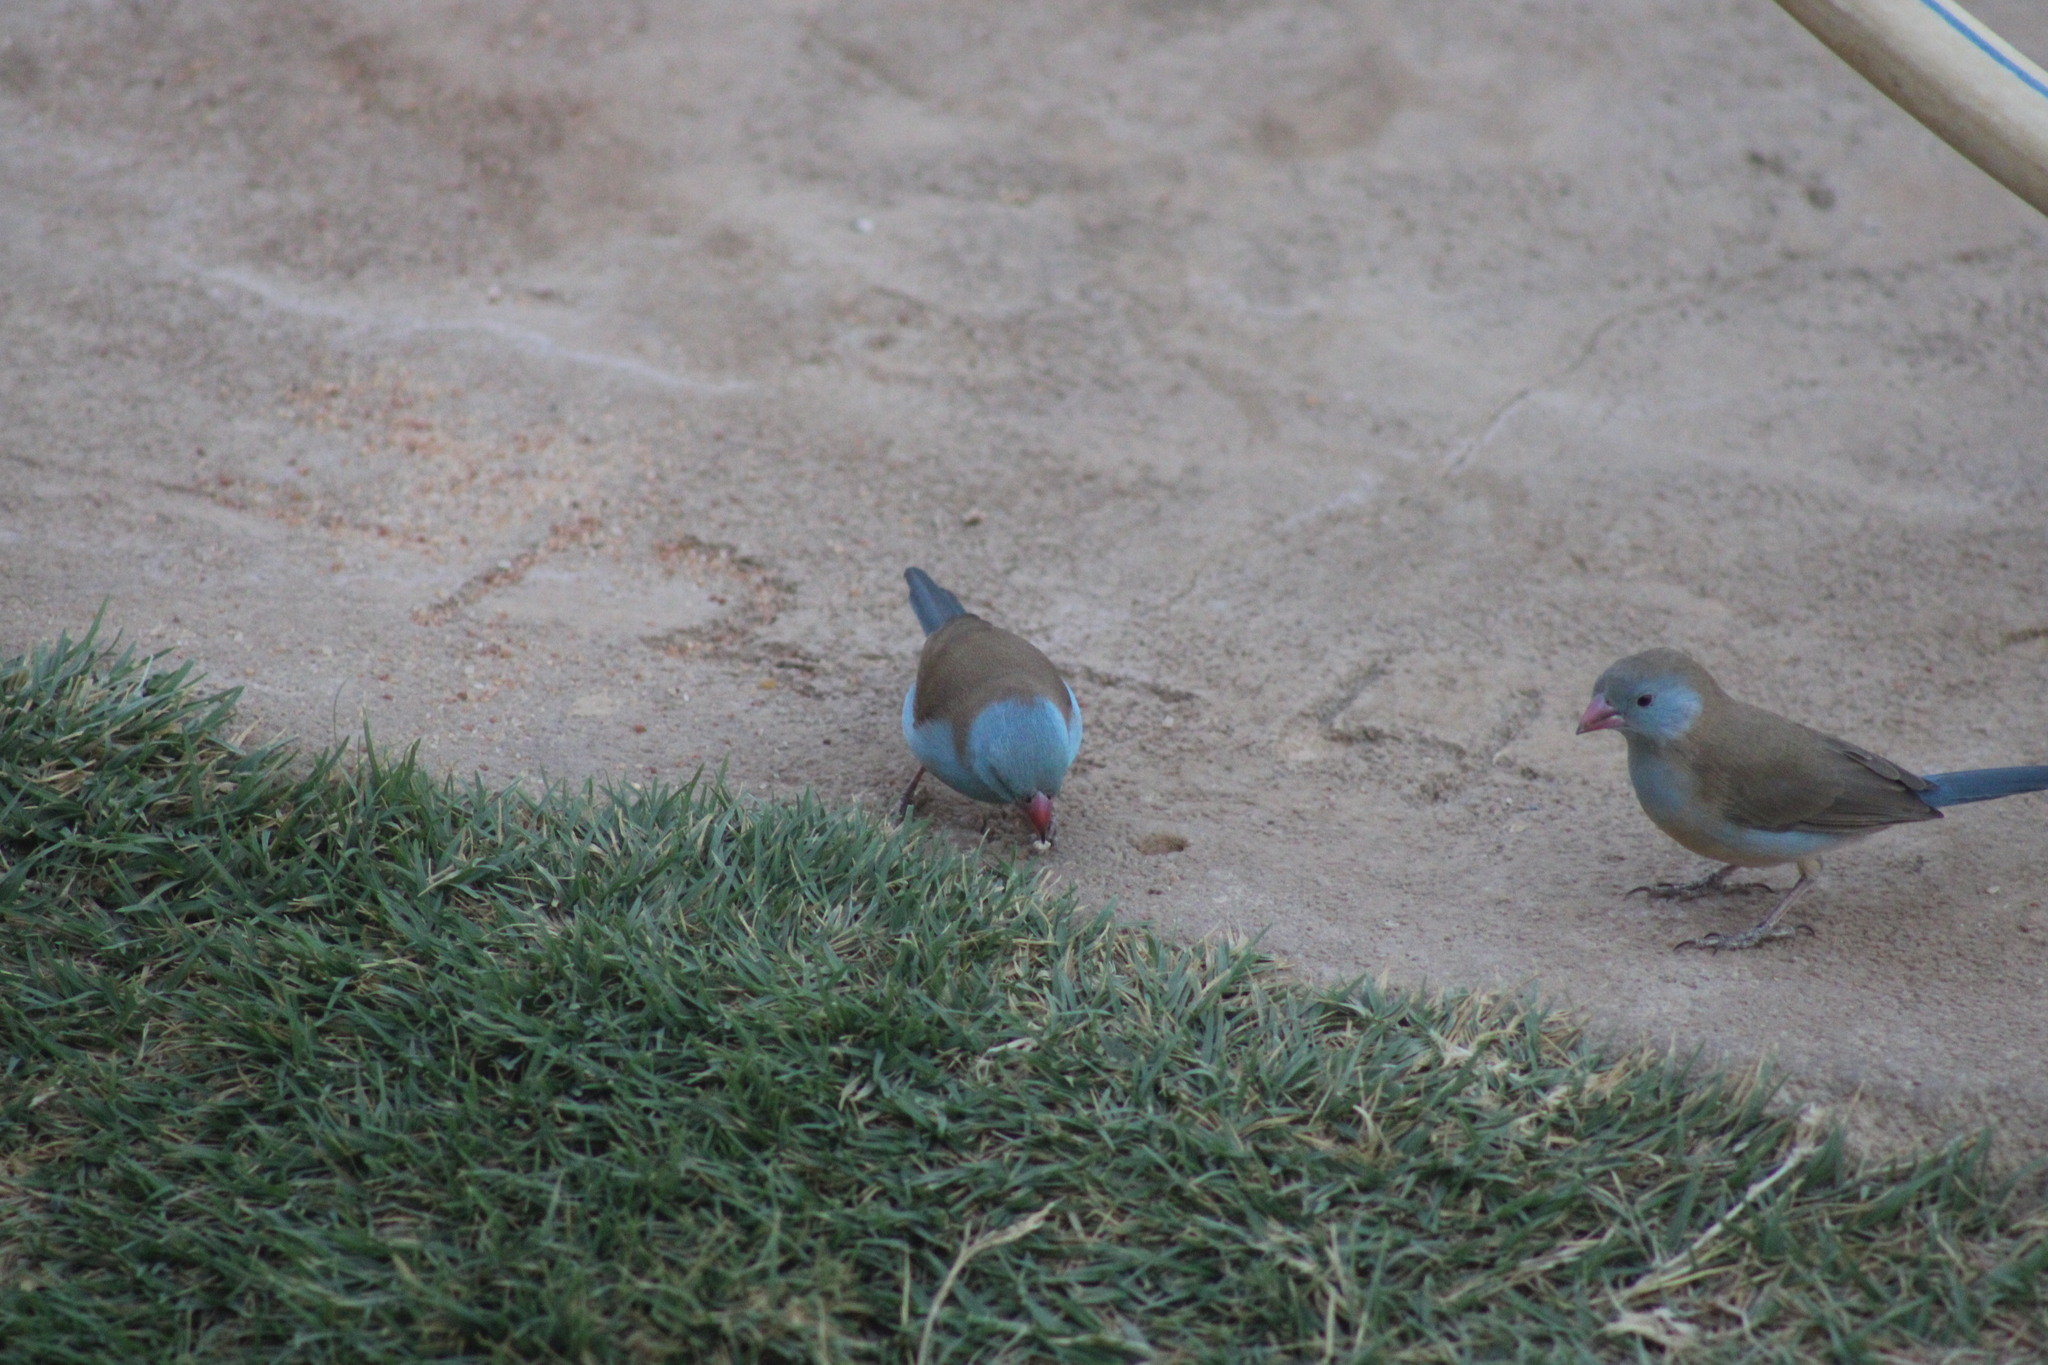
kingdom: Animalia
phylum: Chordata
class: Aves
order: Passeriformes
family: Estrildidae
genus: Uraeginthus
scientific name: Uraeginthus cyanocephalus
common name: Blue-capped cordon-bleu
